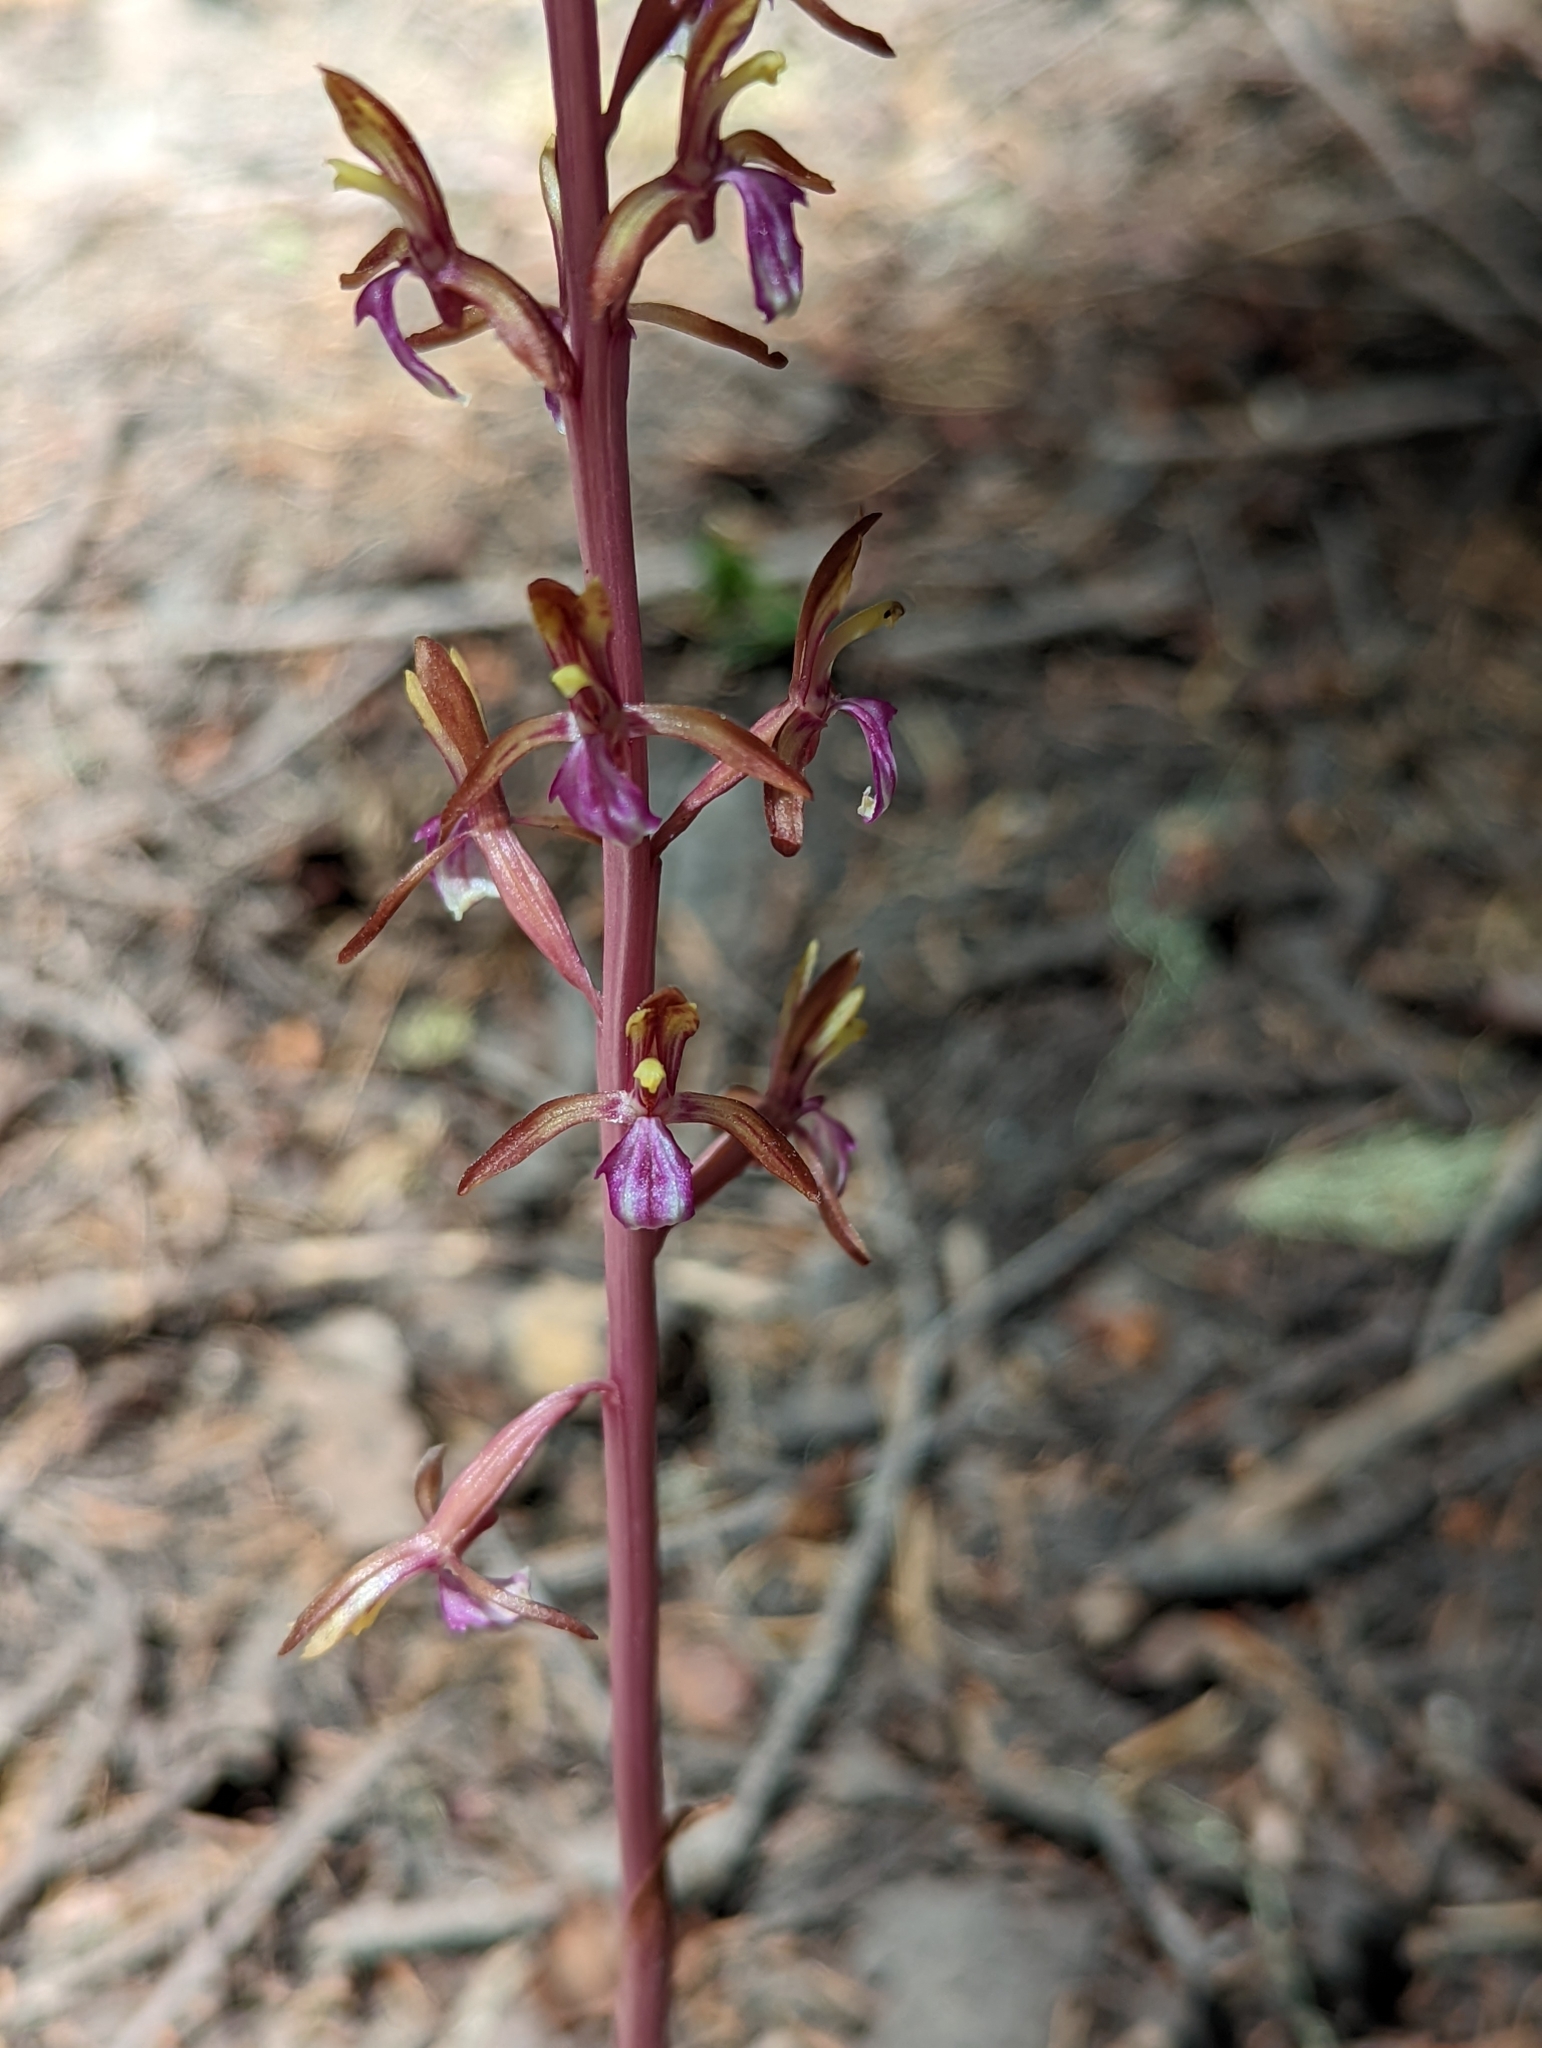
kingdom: Plantae
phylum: Tracheophyta
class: Liliopsida
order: Asparagales
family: Orchidaceae
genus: Corallorhiza
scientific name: Corallorhiza mertensiana
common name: Pacific coralroot
